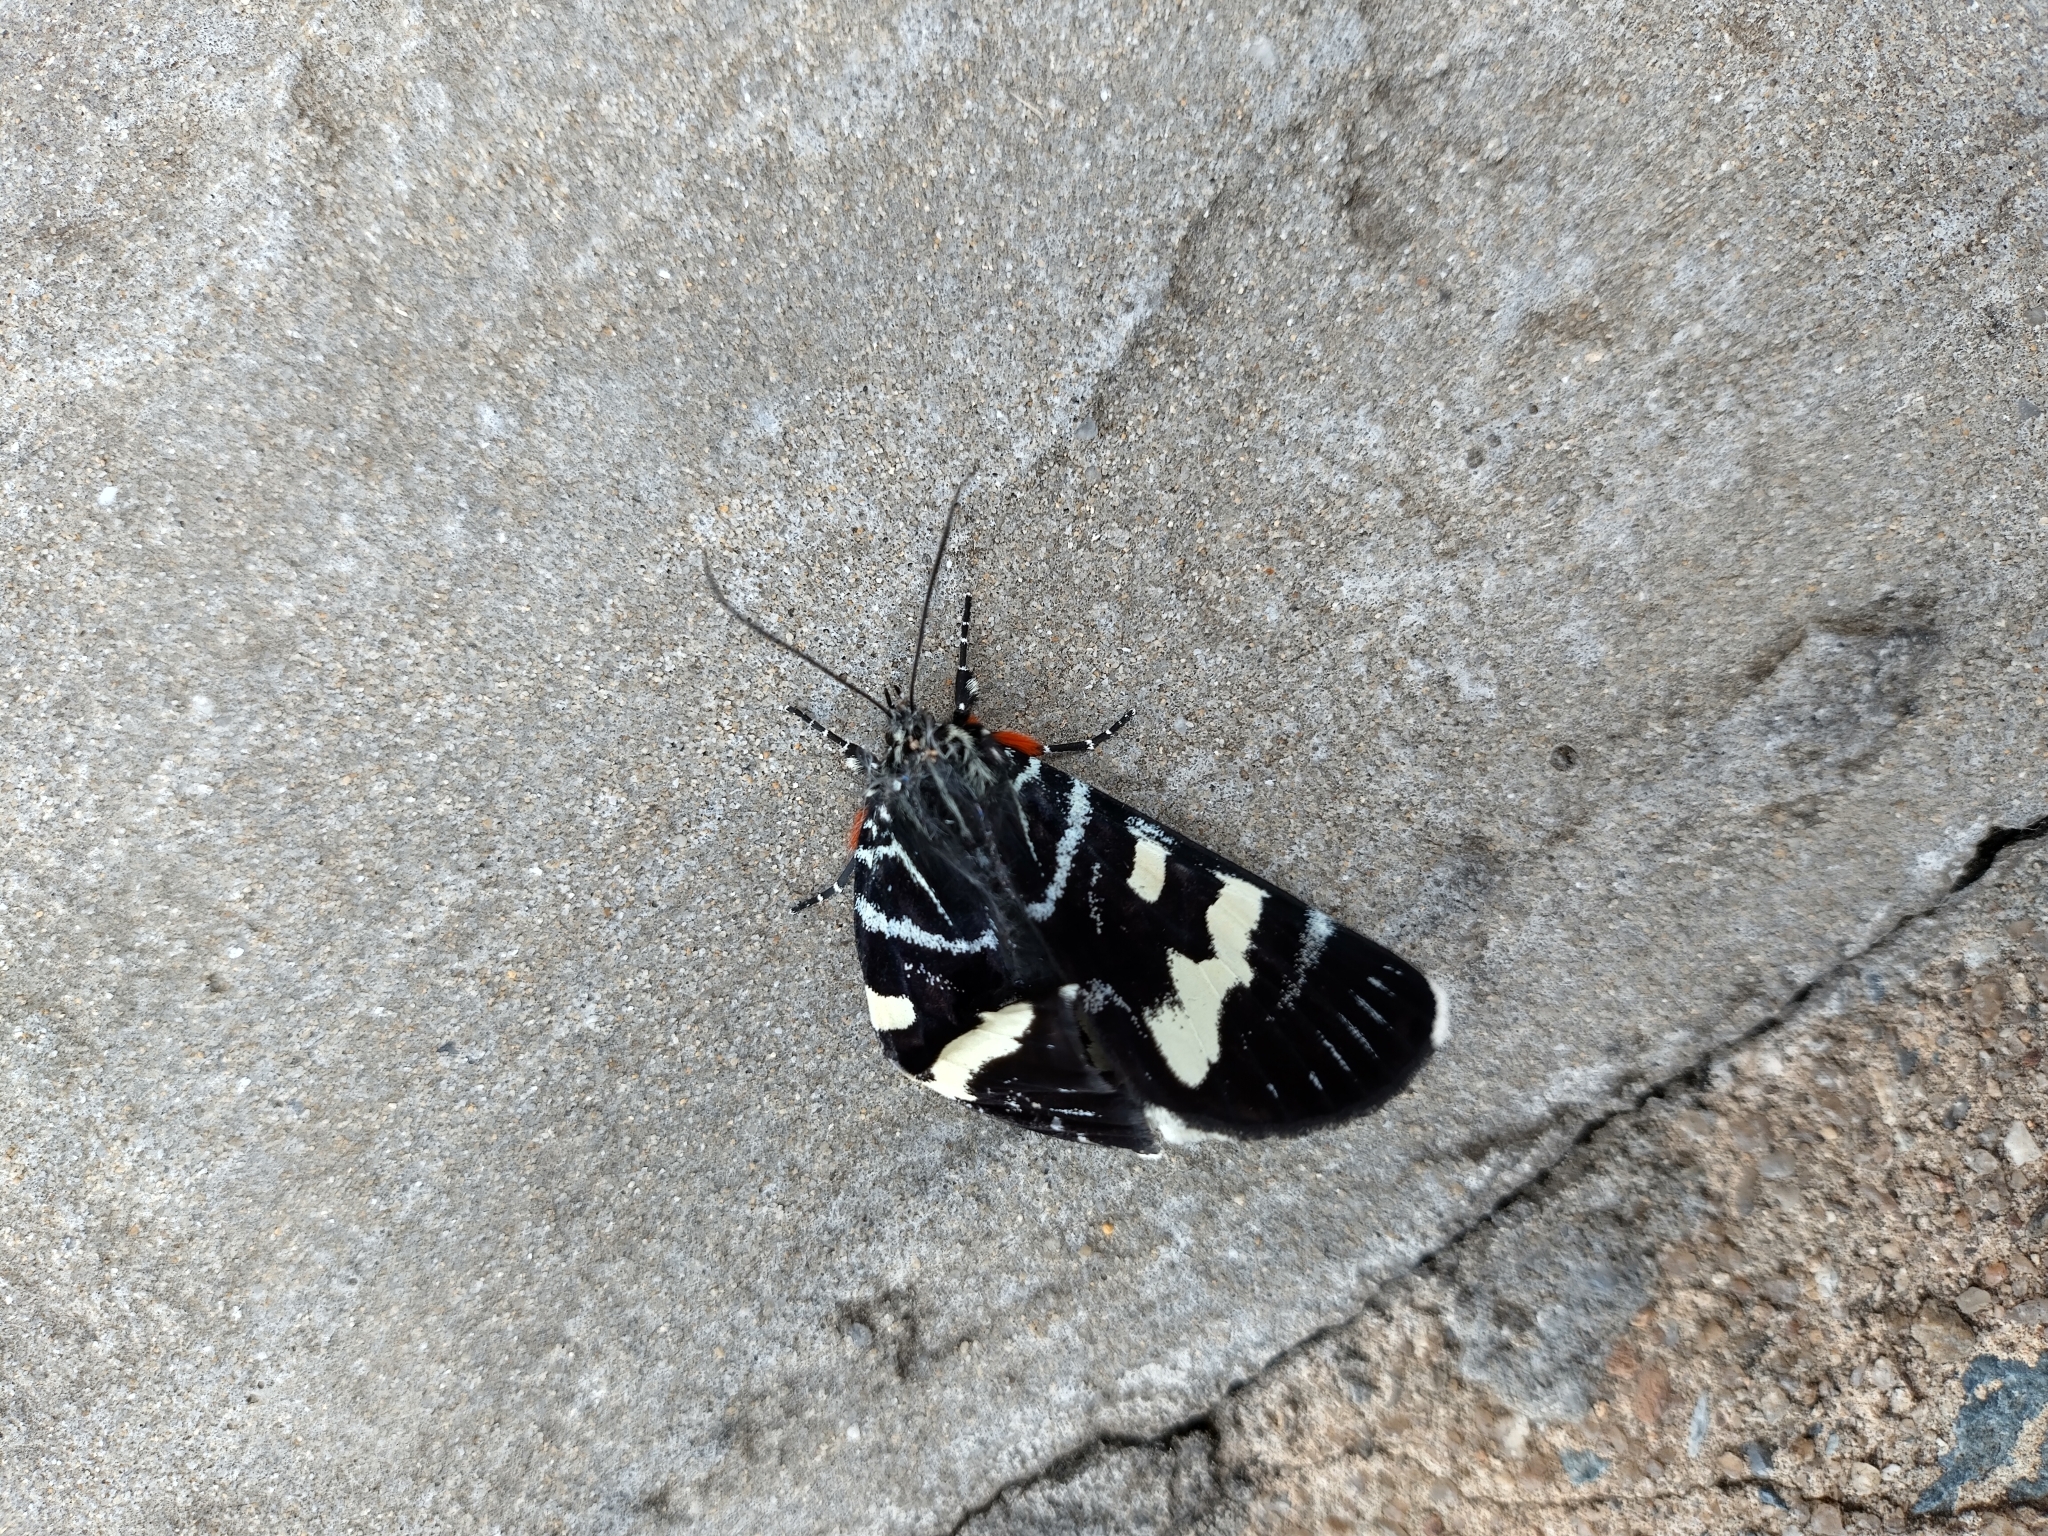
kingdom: Animalia
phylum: Arthropoda
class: Insecta
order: Lepidoptera
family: Noctuidae
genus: Phalaenoides
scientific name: Phalaenoides glycinae
